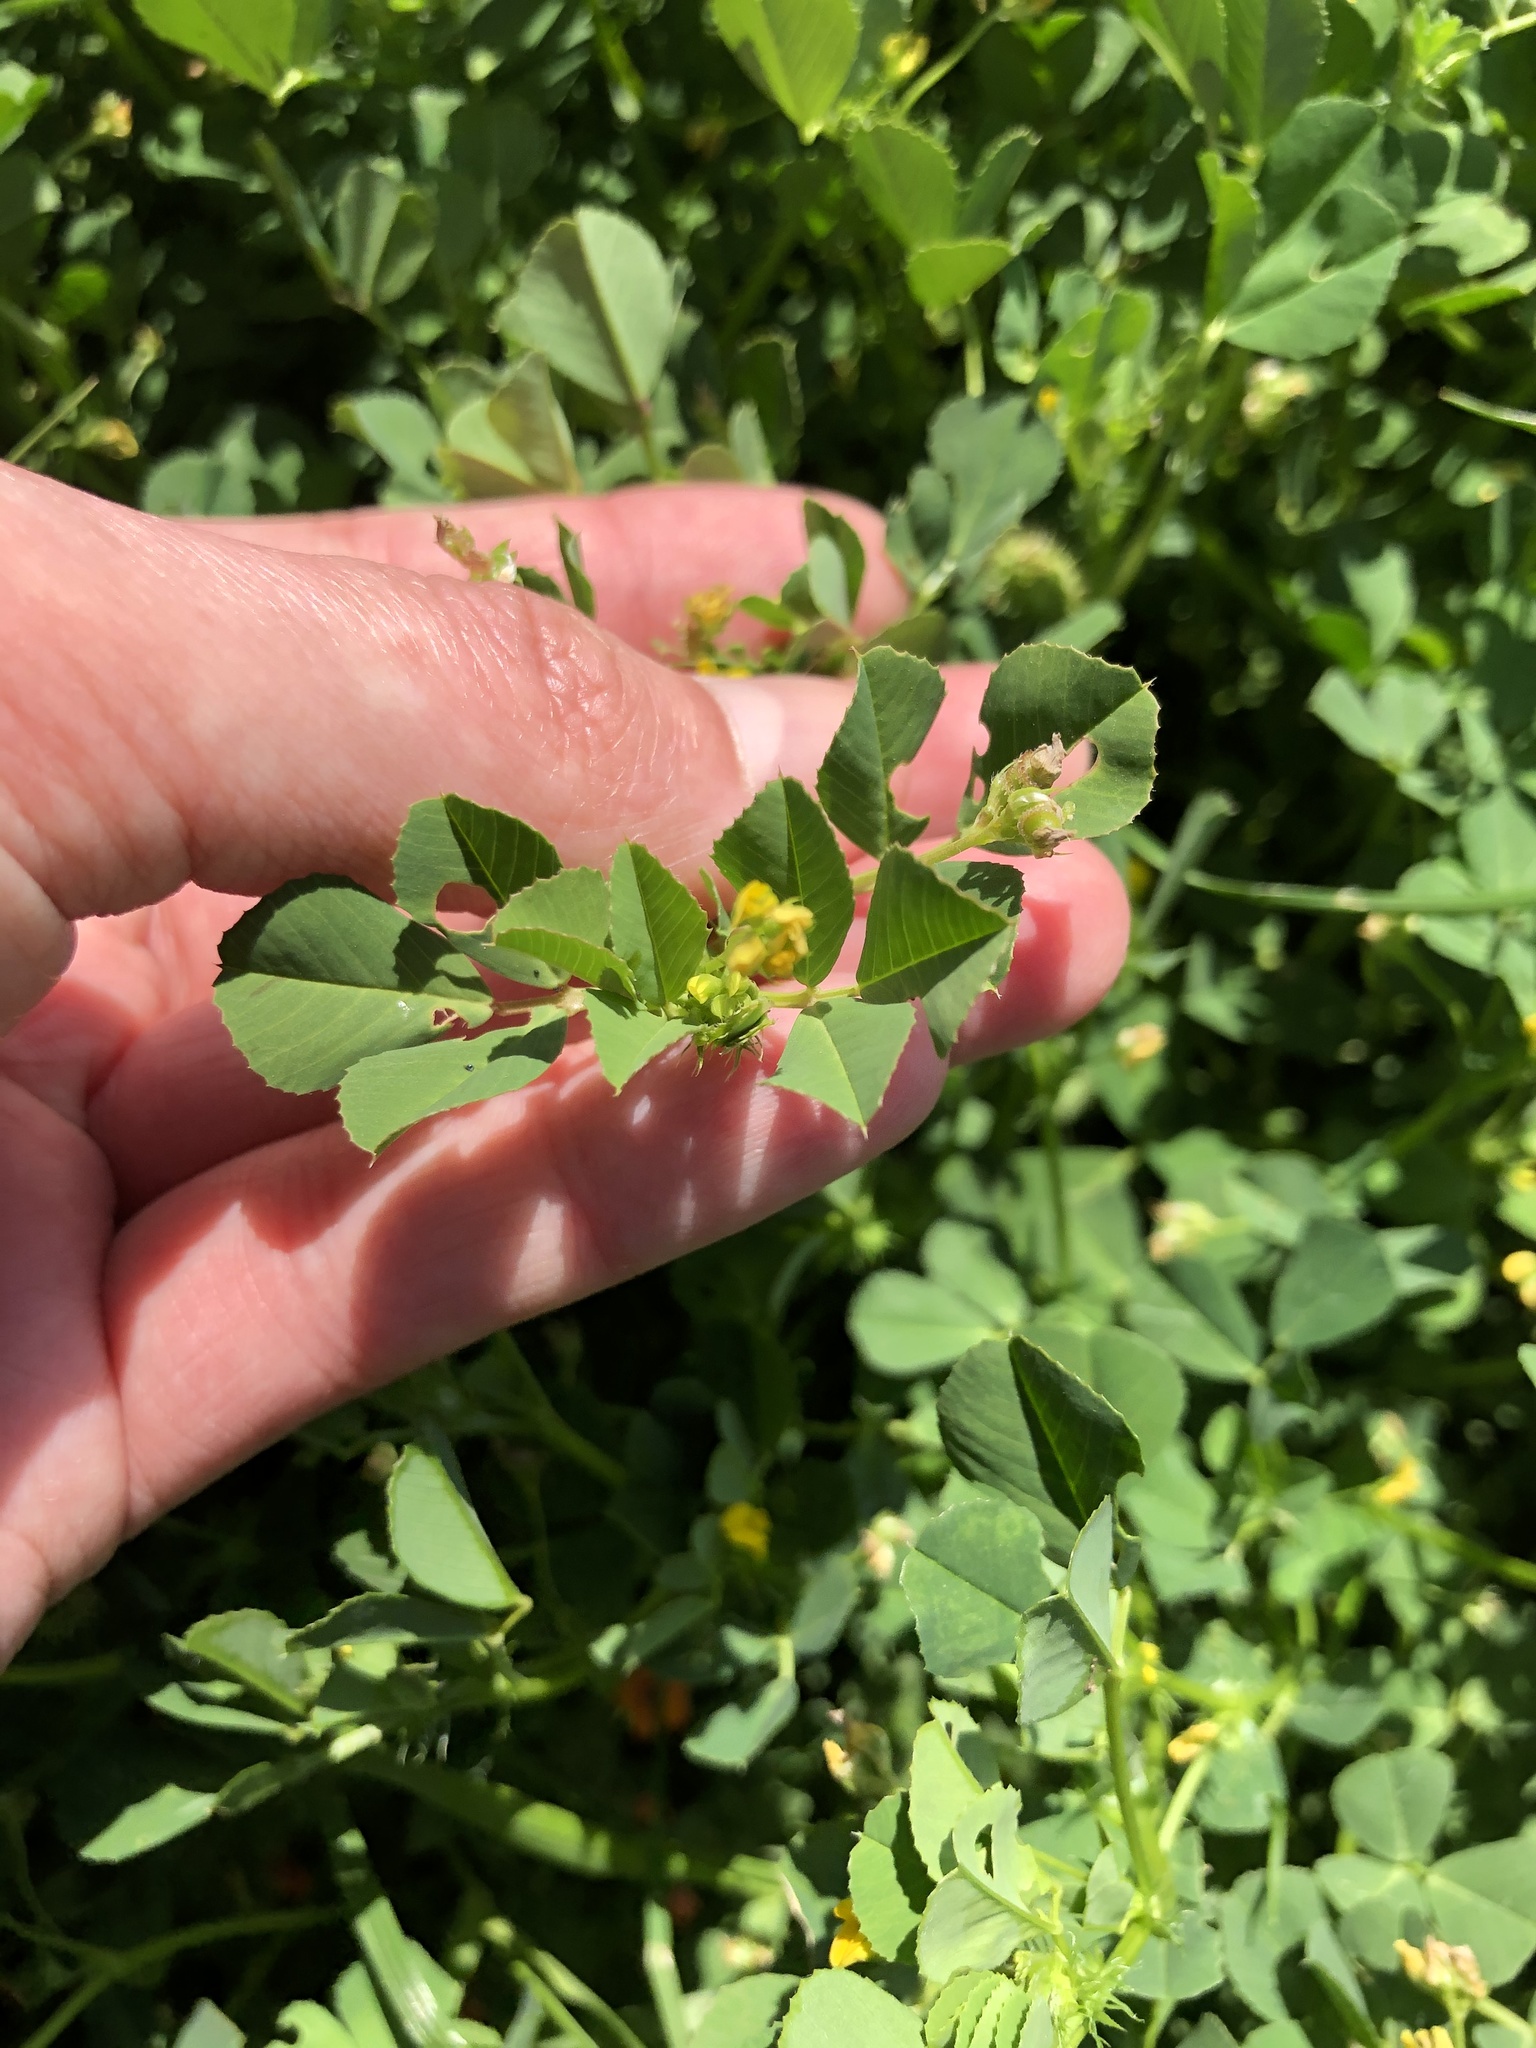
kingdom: Plantae
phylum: Tracheophyta
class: Magnoliopsida
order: Fabales
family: Fabaceae
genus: Medicago
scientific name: Medicago polymorpha
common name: Burclover
